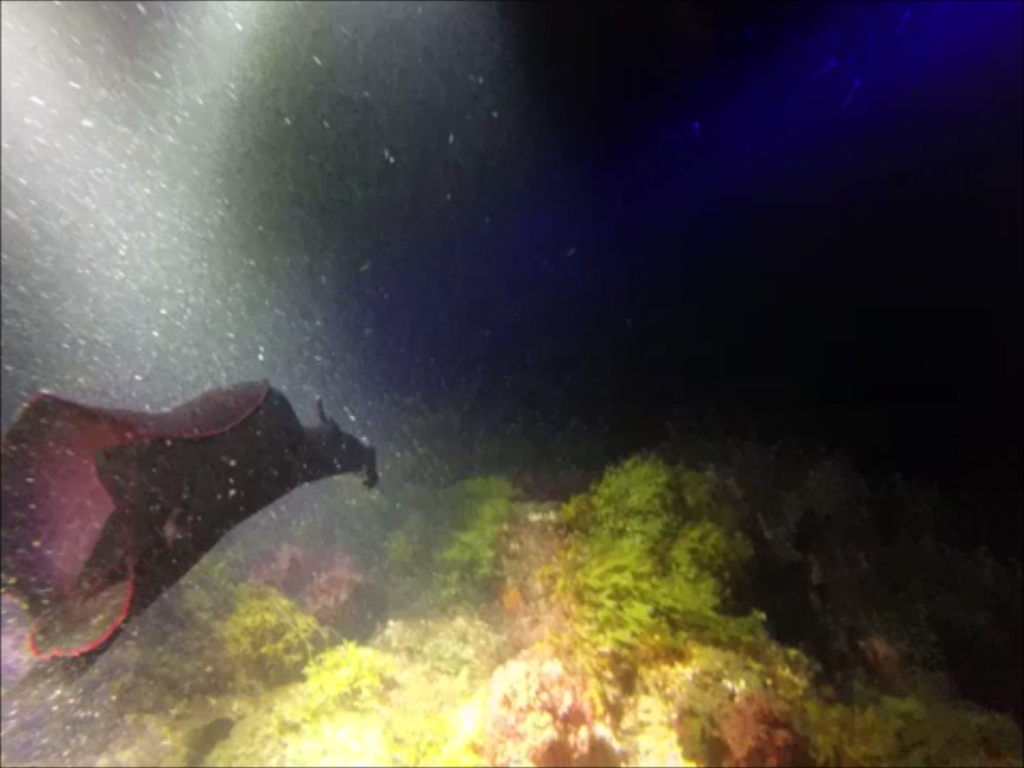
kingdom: Animalia
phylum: Mollusca
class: Gastropoda
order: Aplysiida
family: Aplysiidae
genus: Aplysia
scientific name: Aplysia fasciata
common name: Banded sea hare
